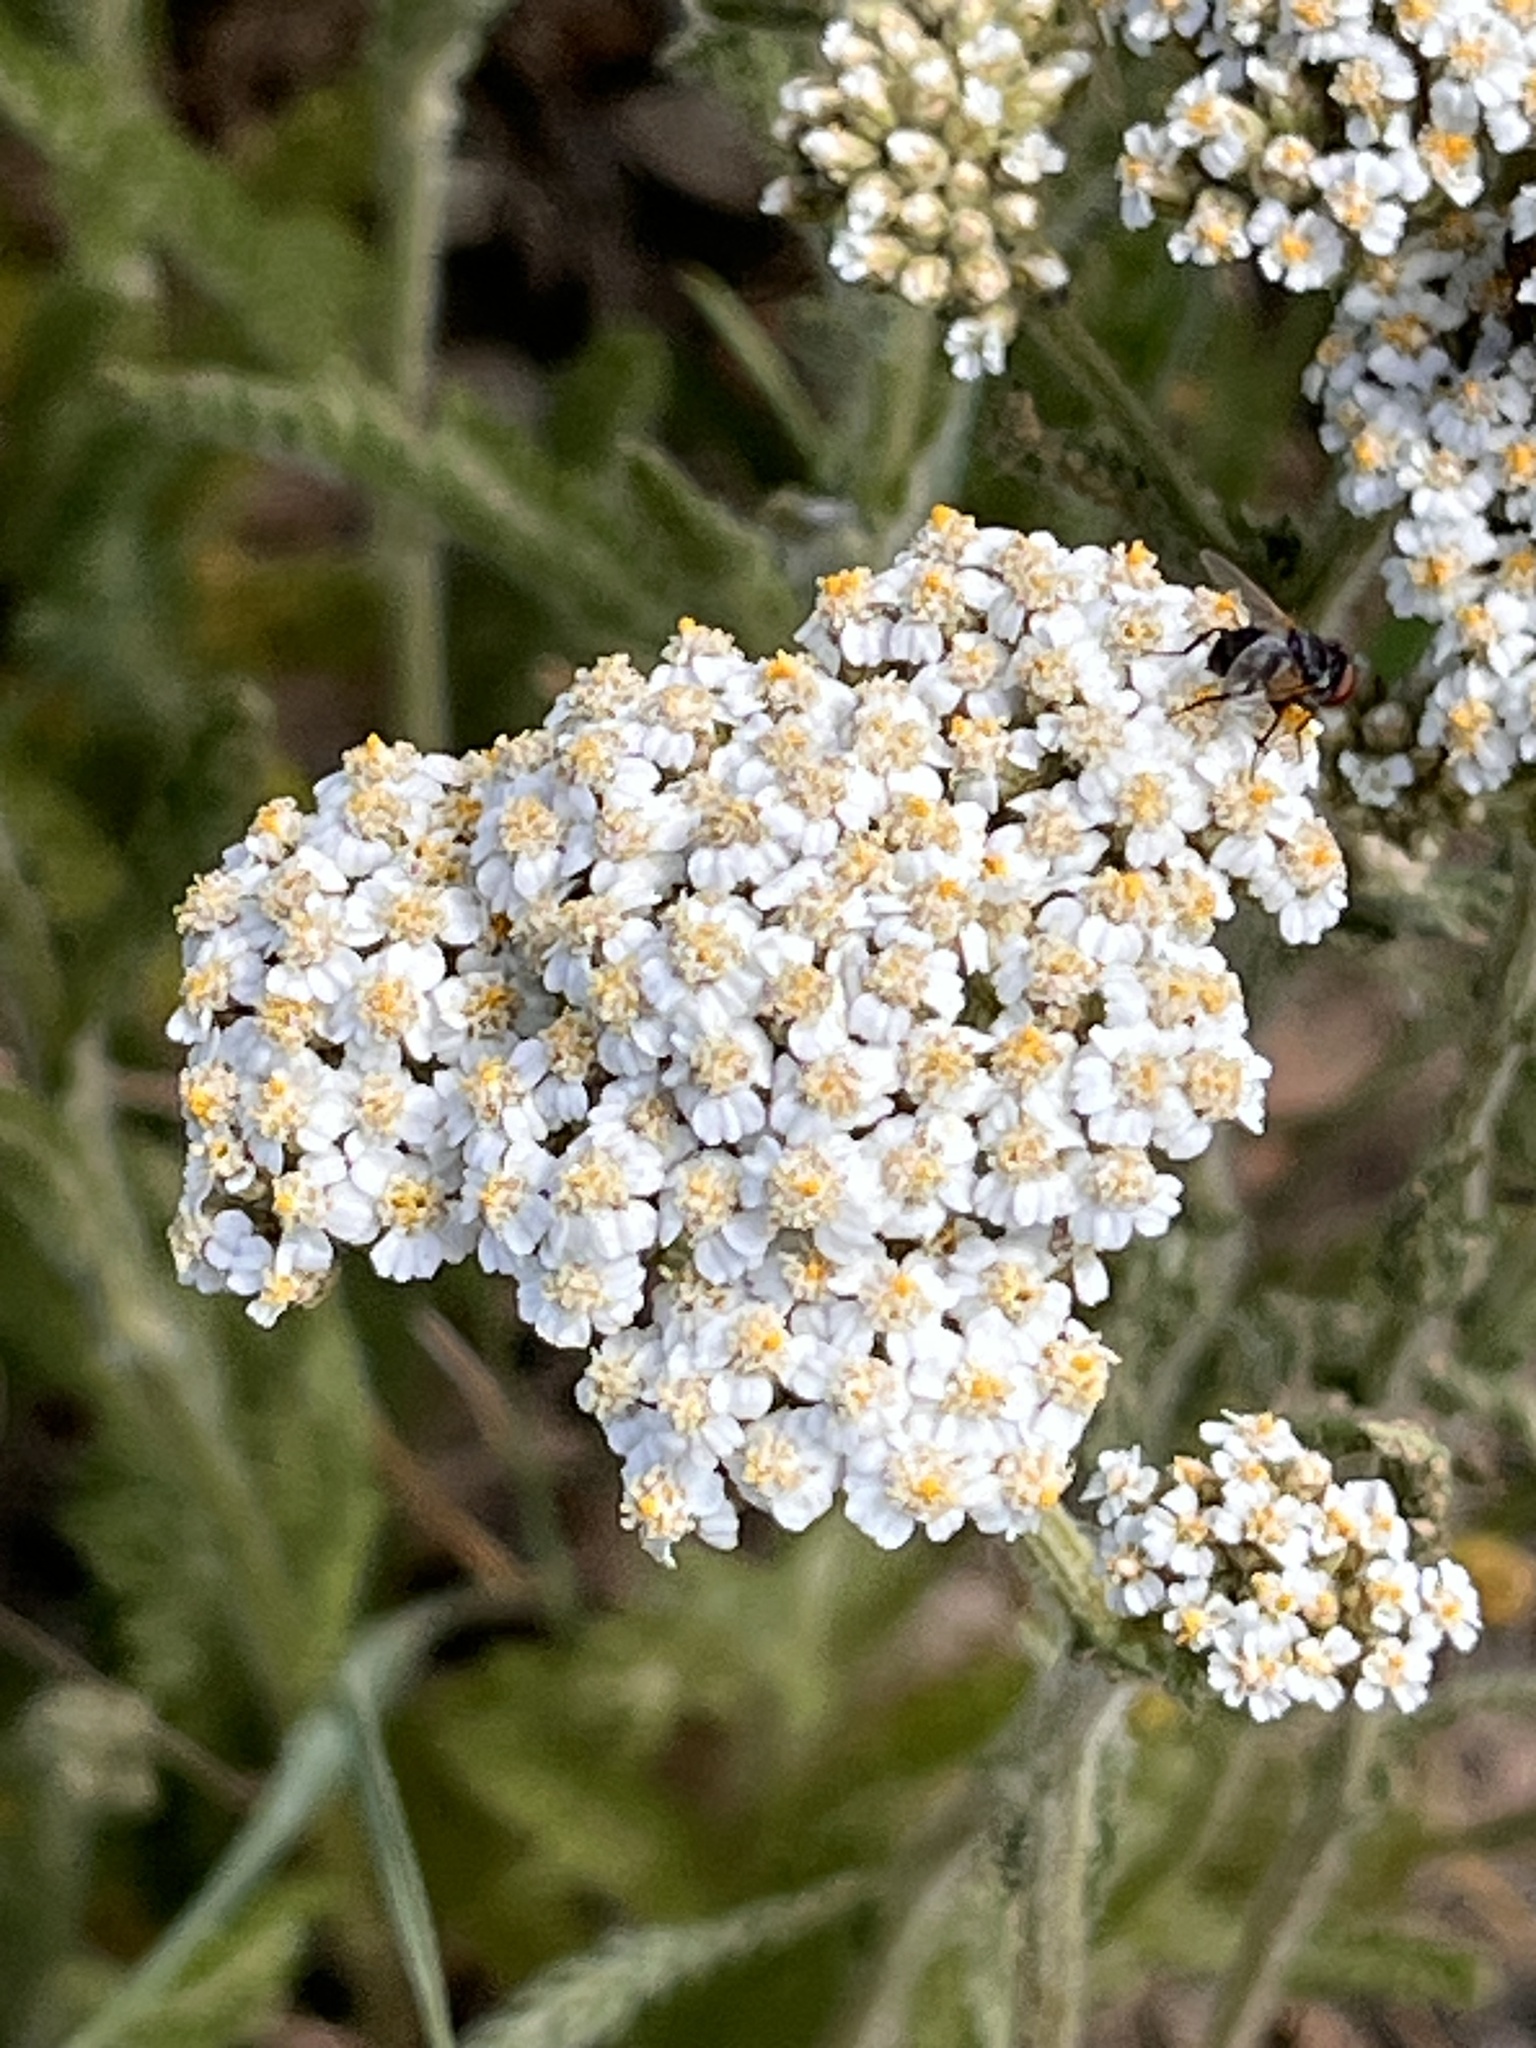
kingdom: Plantae
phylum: Tracheophyta
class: Magnoliopsida
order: Asterales
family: Asteraceae
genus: Achillea
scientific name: Achillea millefolium
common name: Yarrow
